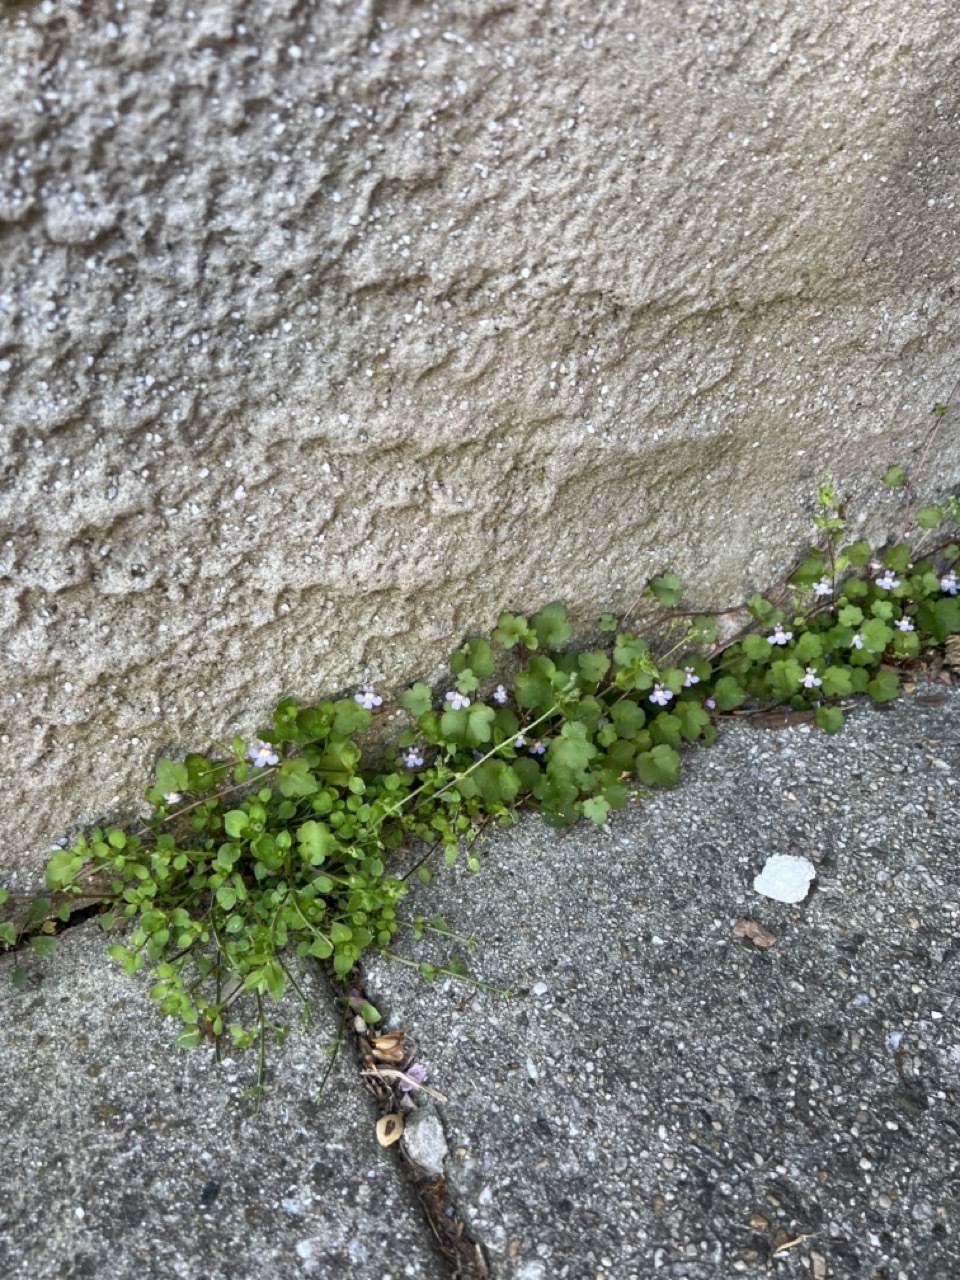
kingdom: Plantae
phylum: Tracheophyta
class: Magnoliopsida
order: Lamiales
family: Plantaginaceae
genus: Cymbalaria
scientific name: Cymbalaria muralis
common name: Ivy-leaved toadflax
